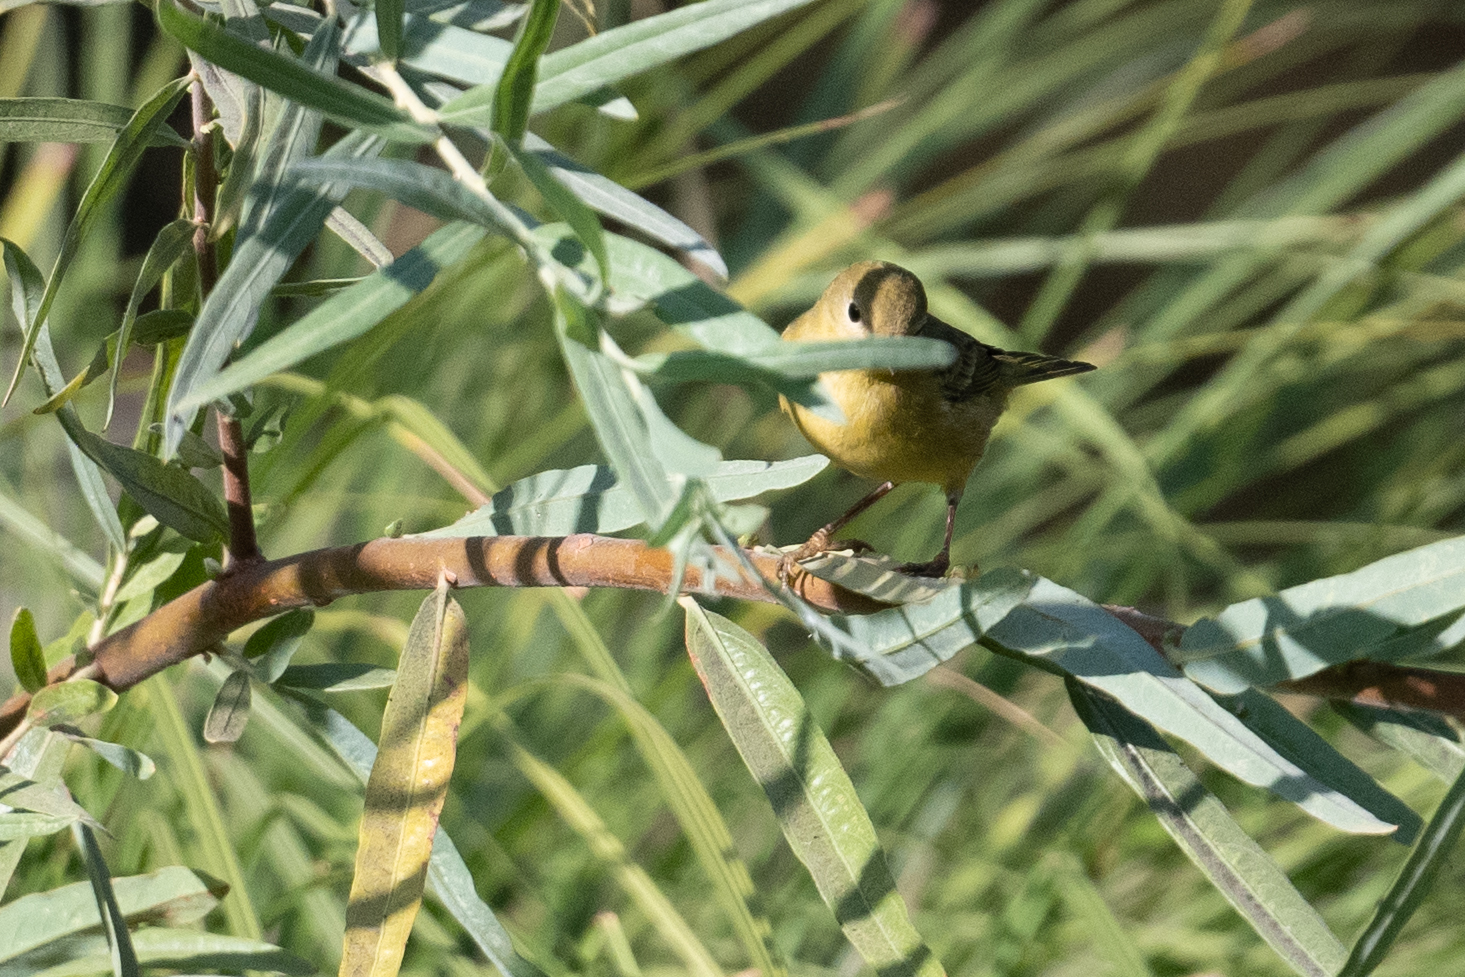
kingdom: Animalia
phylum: Chordata
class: Aves
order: Passeriformes
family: Parulidae
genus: Setophaga
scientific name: Setophaga petechia
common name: Yellow warbler
